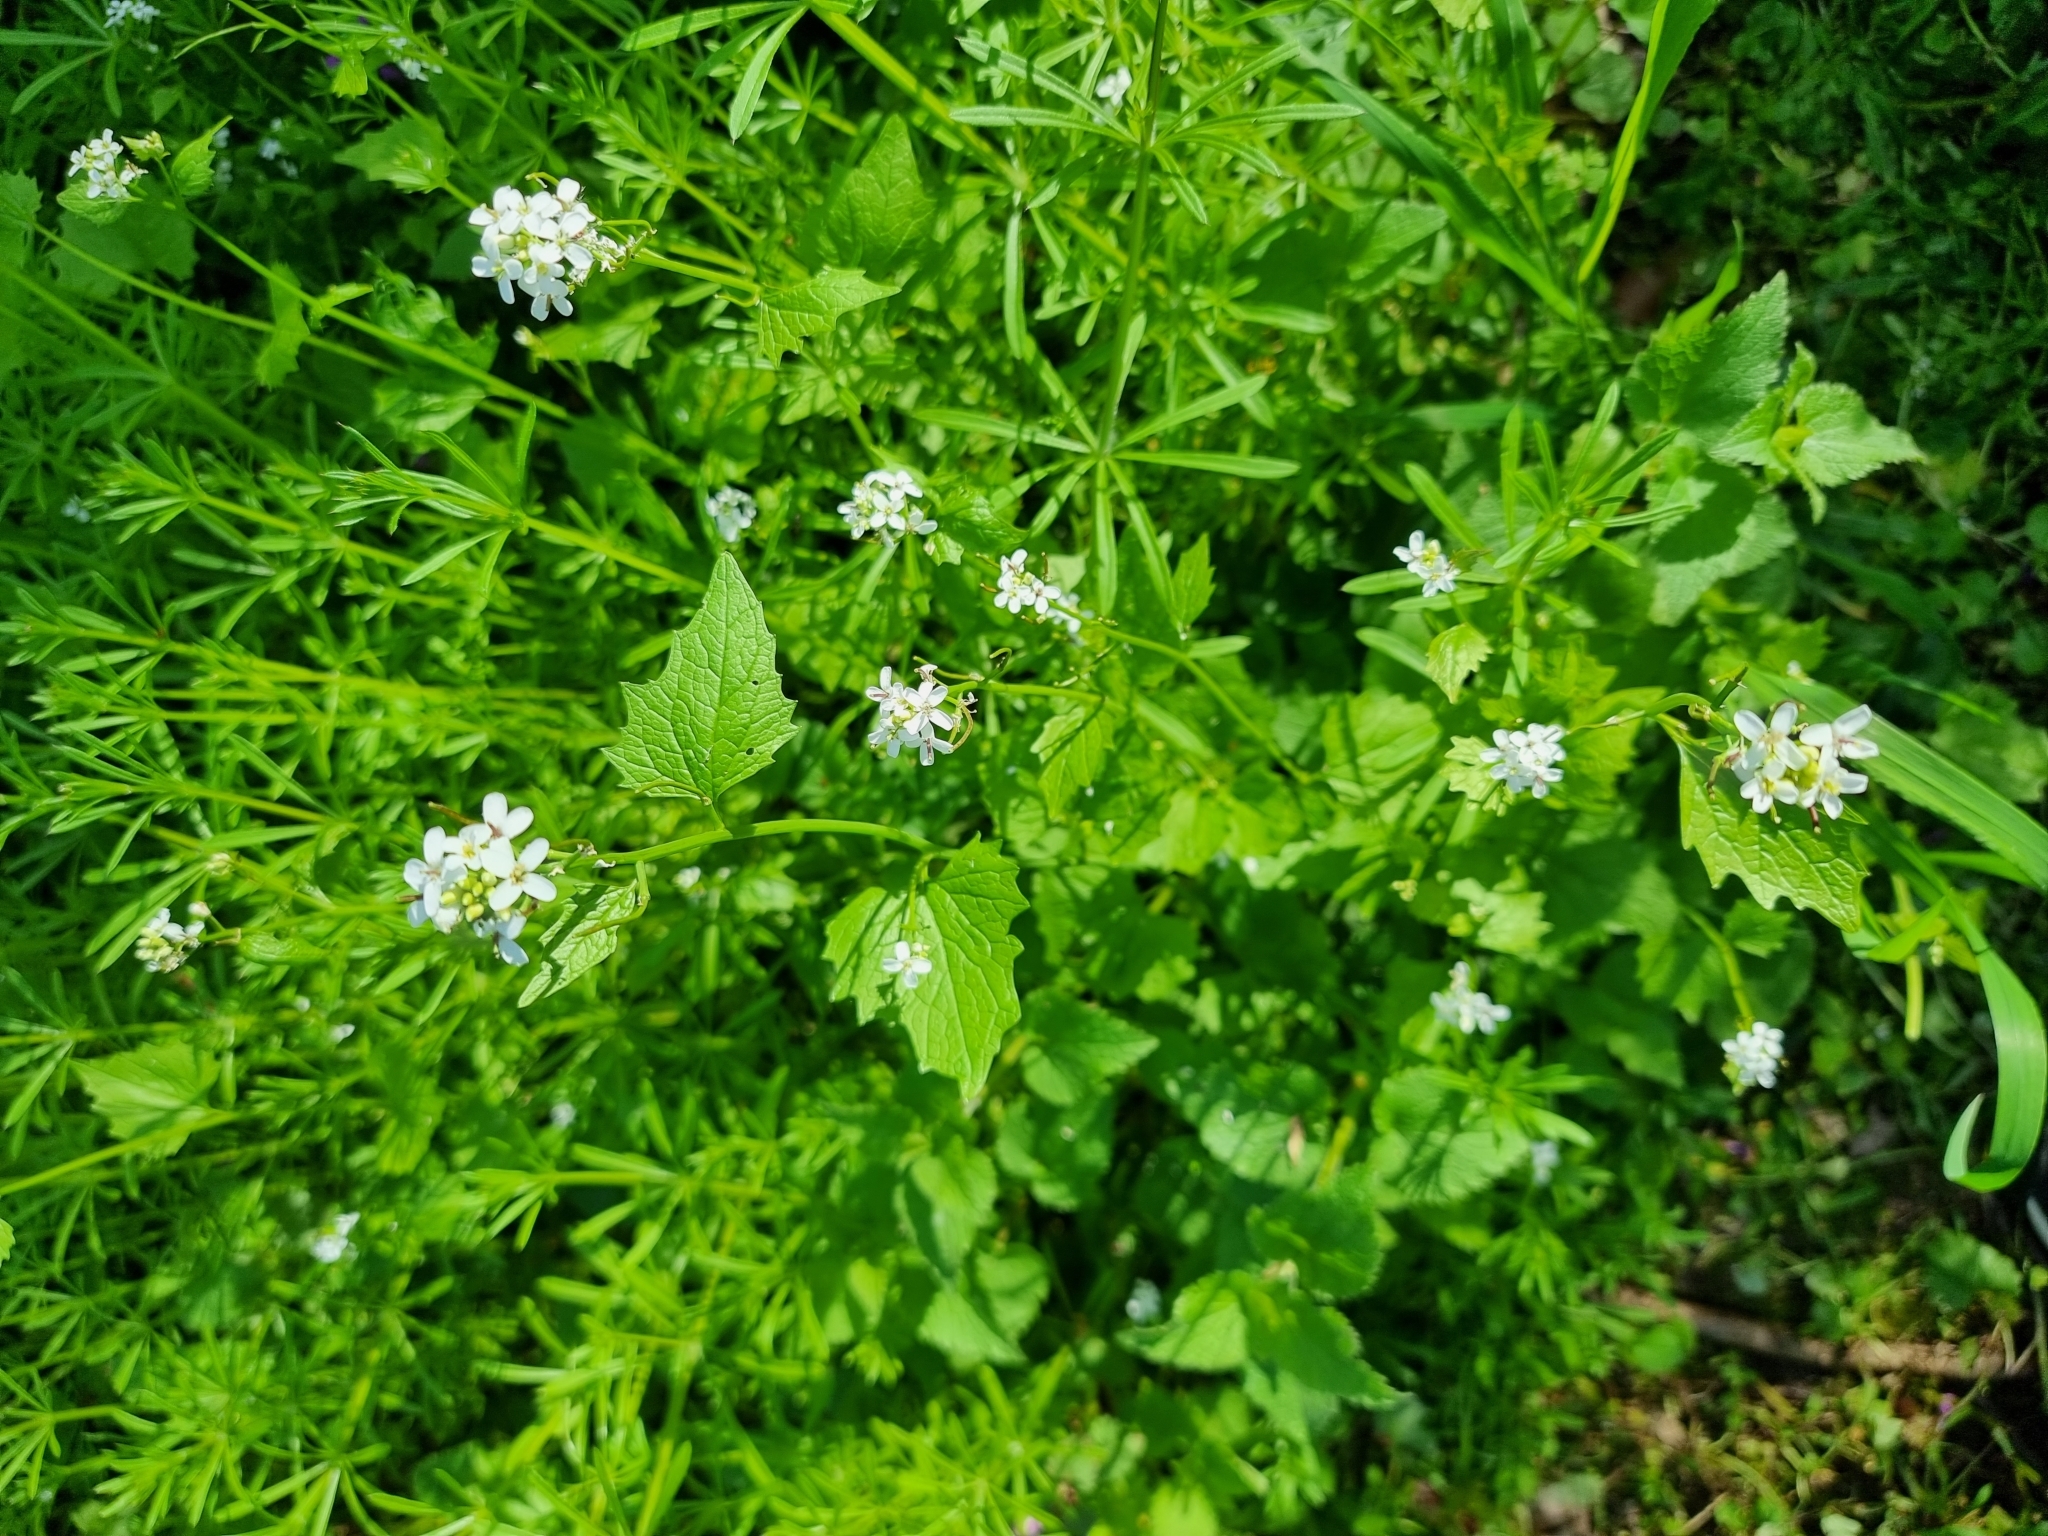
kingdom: Plantae
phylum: Tracheophyta
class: Magnoliopsida
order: Brassicales
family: Brassicaceae
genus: Alliaria
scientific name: Alliaria petiolata
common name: Garlic mustard
